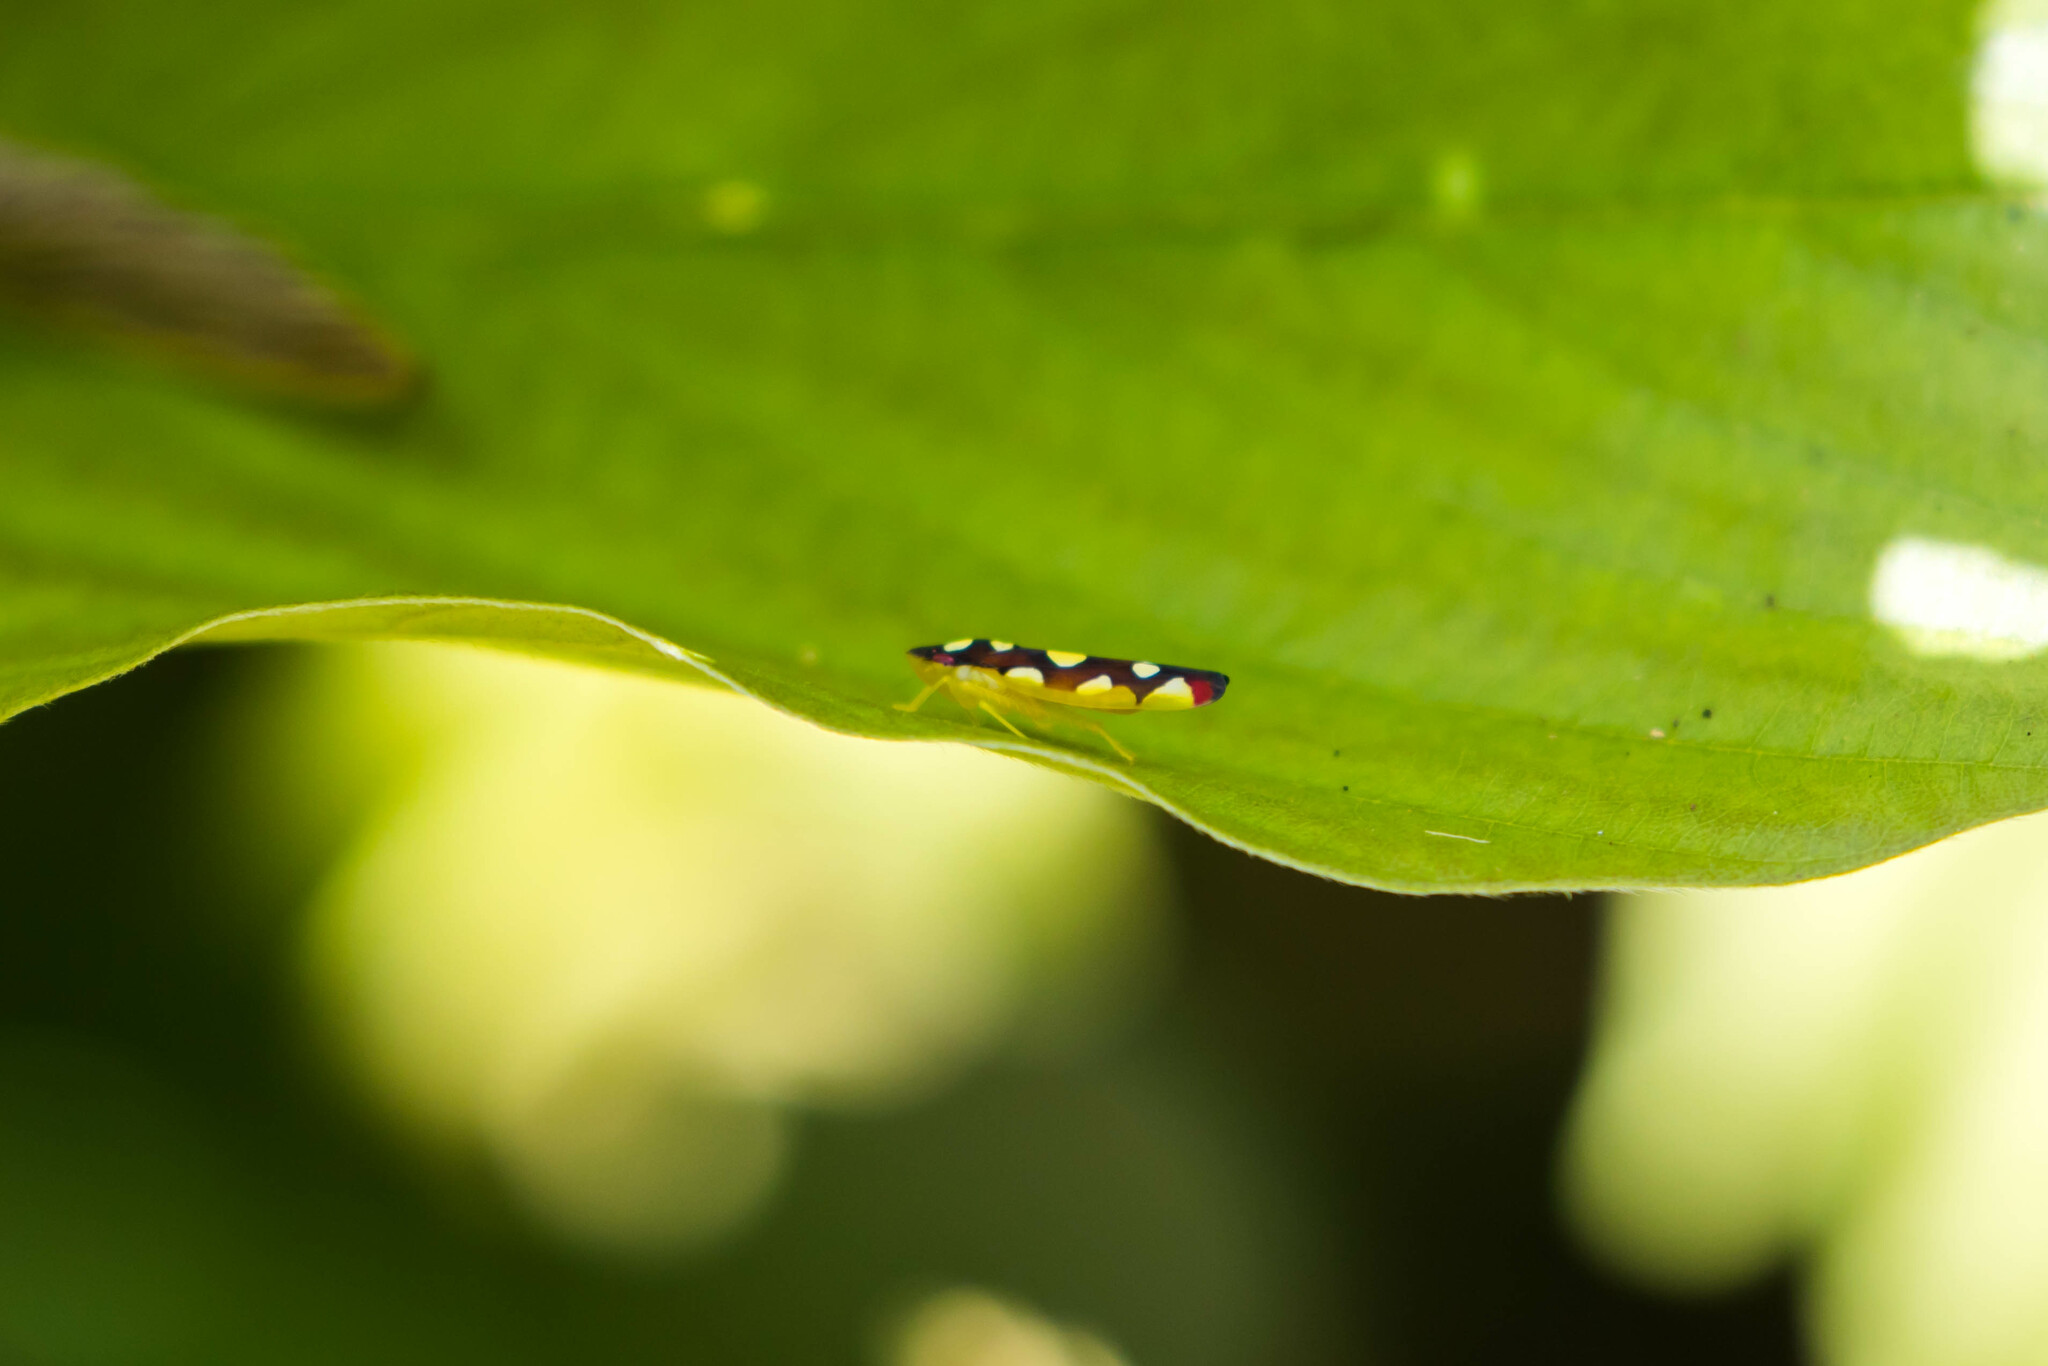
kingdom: Animalia
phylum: Arthropoda
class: Insecta
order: Hemiptera
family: Cicadellidae
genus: Baleja
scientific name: Baleja flavoguttata
